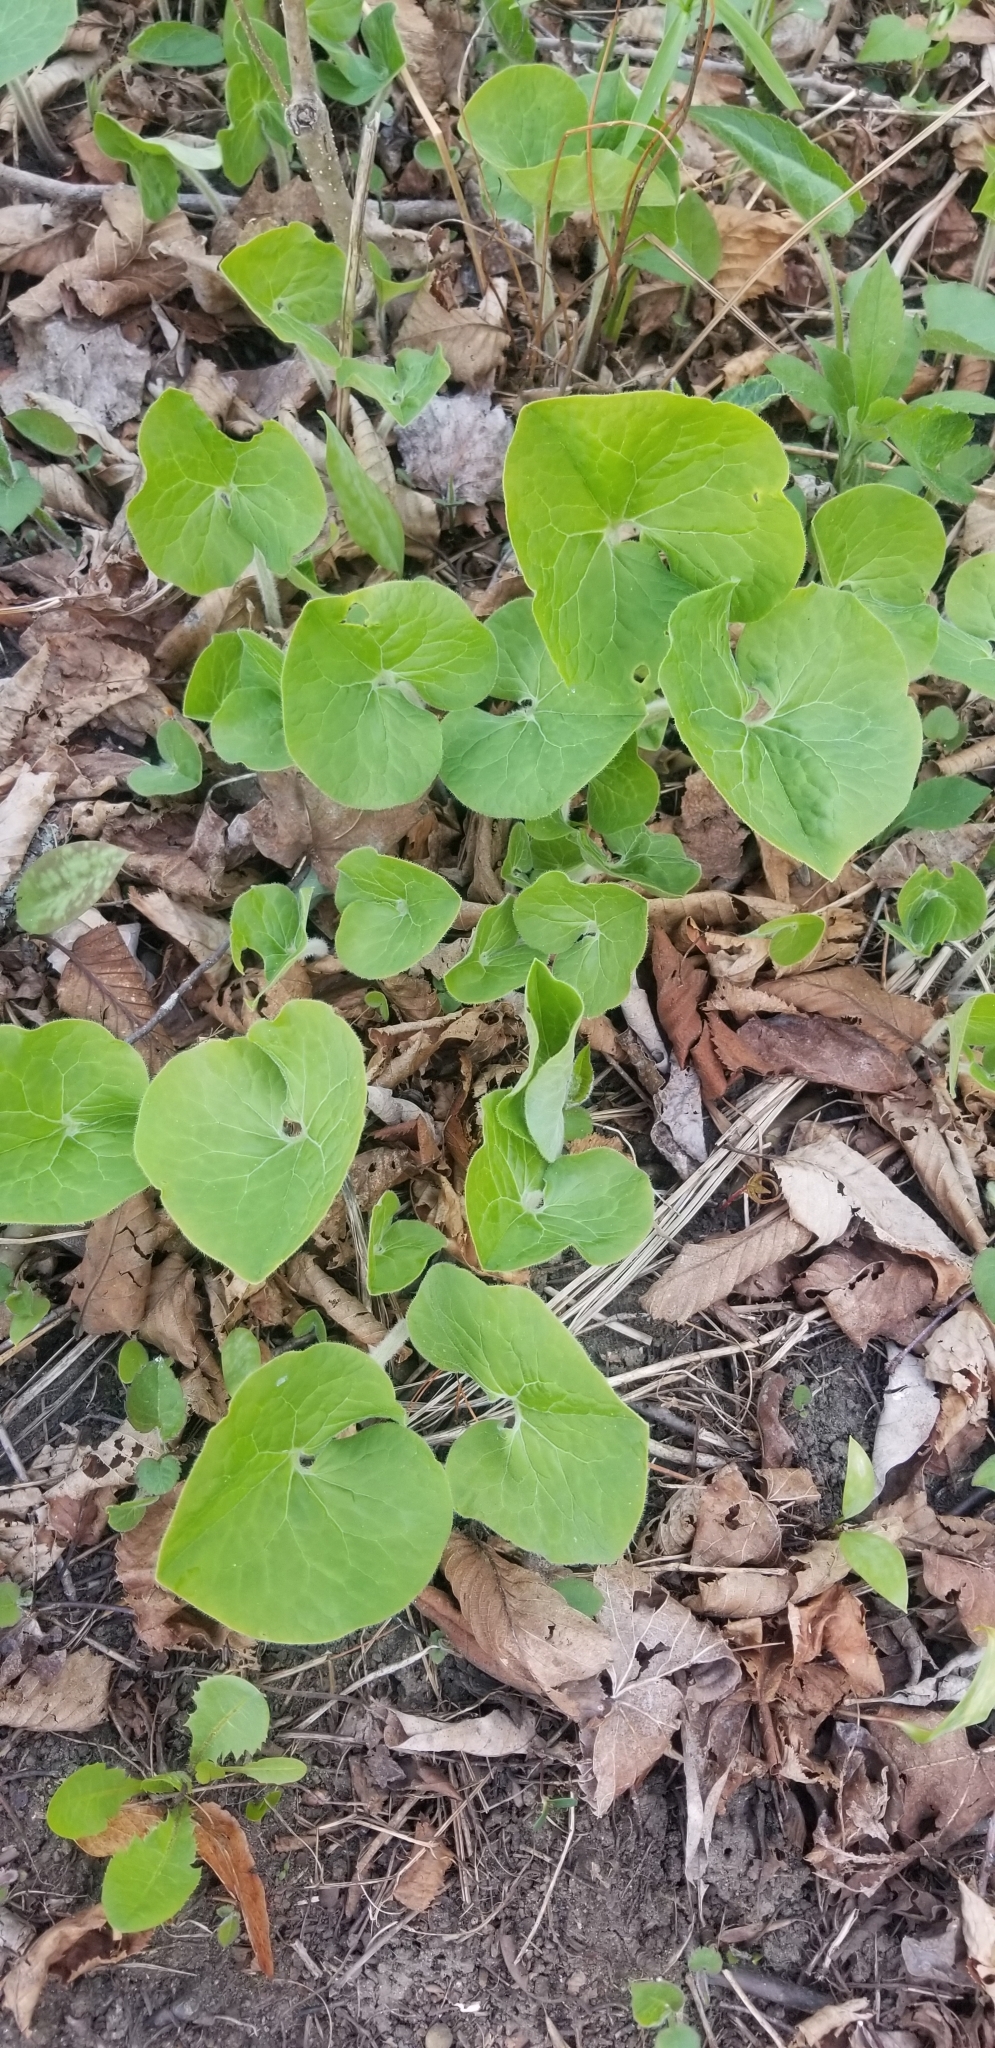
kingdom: Plantae
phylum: Tracheophyta
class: Magnoliopsida
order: Piperales
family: Aristolochiaceae
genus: Asarum
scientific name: Asarum canadense
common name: Wild ginger
